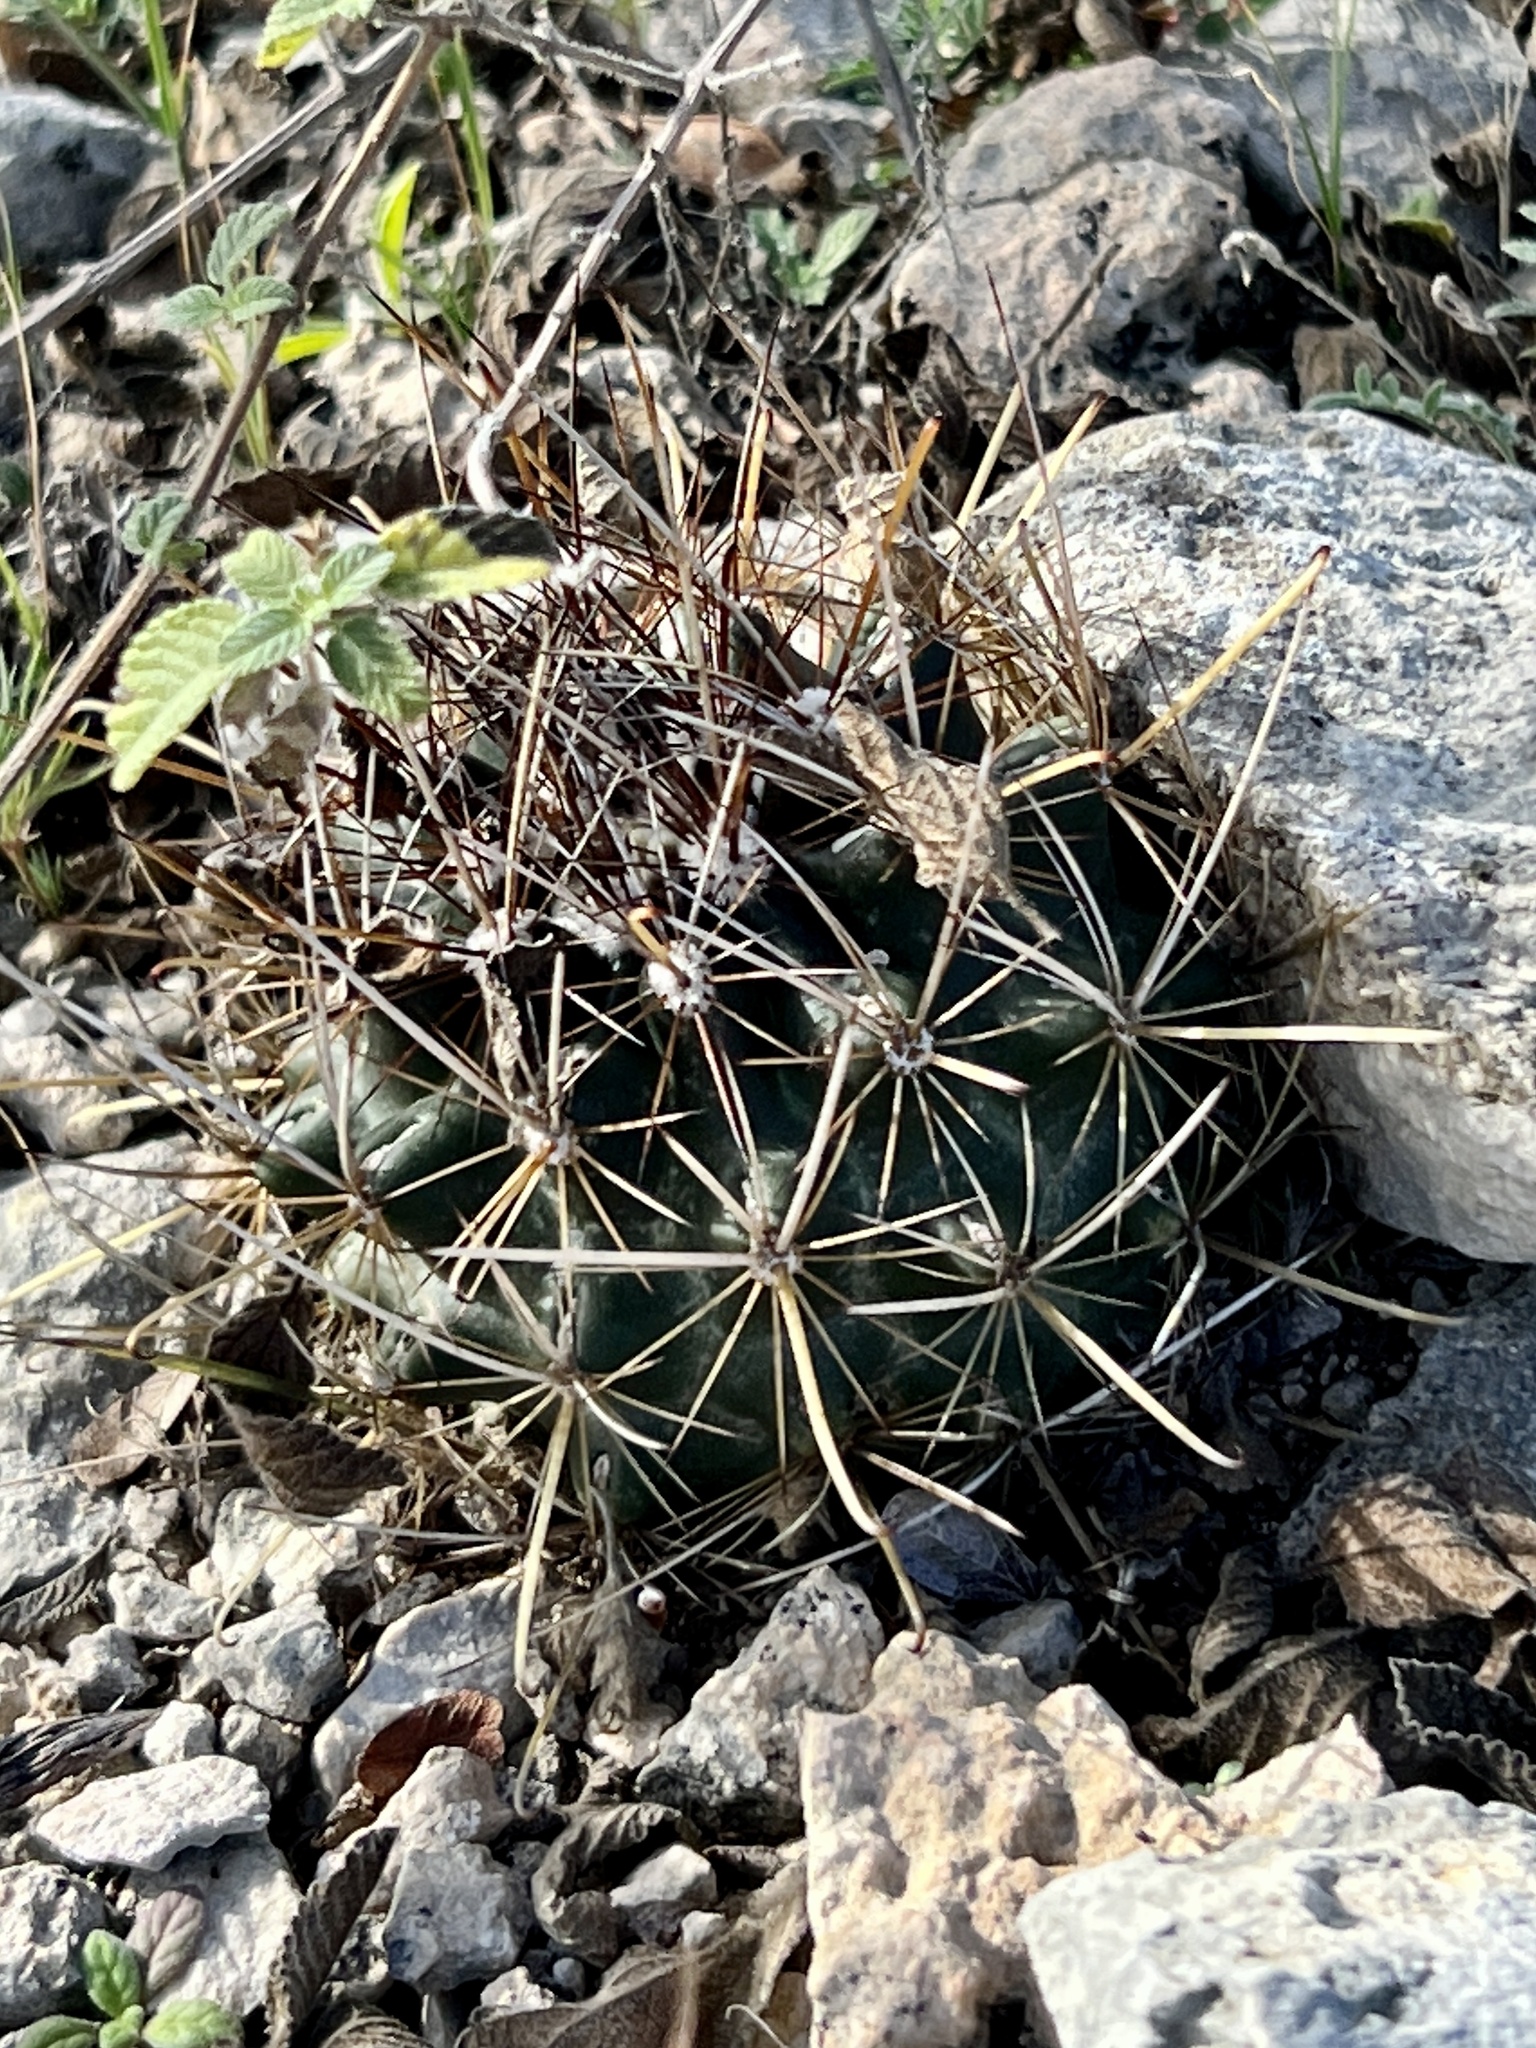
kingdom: Plantae
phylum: Tracheophyta
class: Magnoliopsida
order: Caryophyllales
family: Cactaceae
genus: Sclerocactus
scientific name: Sclerocactus brevihamatus
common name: Engelmann's fishhook cactus
